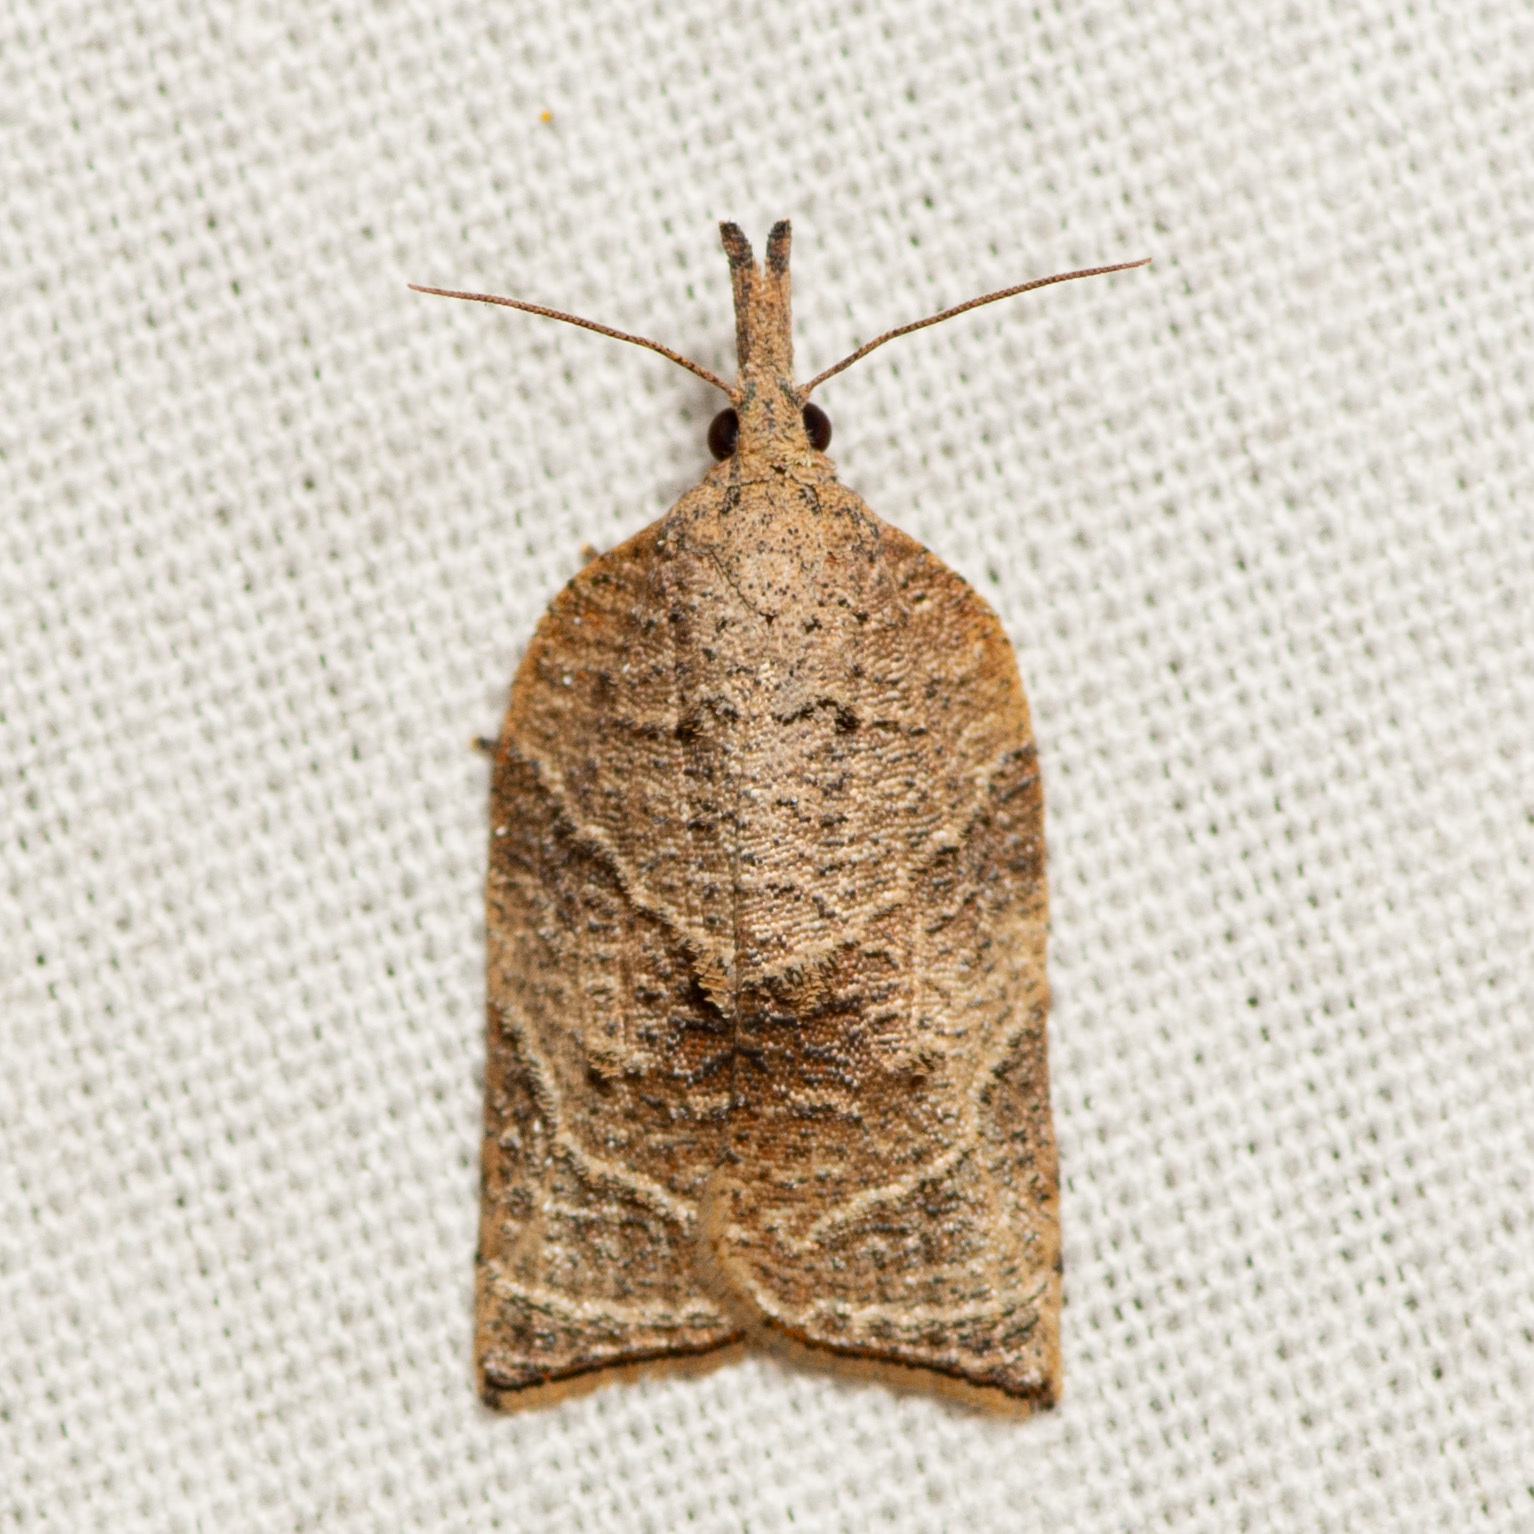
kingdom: Animalia
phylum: Arthropoda
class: Insecta
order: Lepidoptera
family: Tortricidae
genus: Platynota
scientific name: Platynota rostrana
